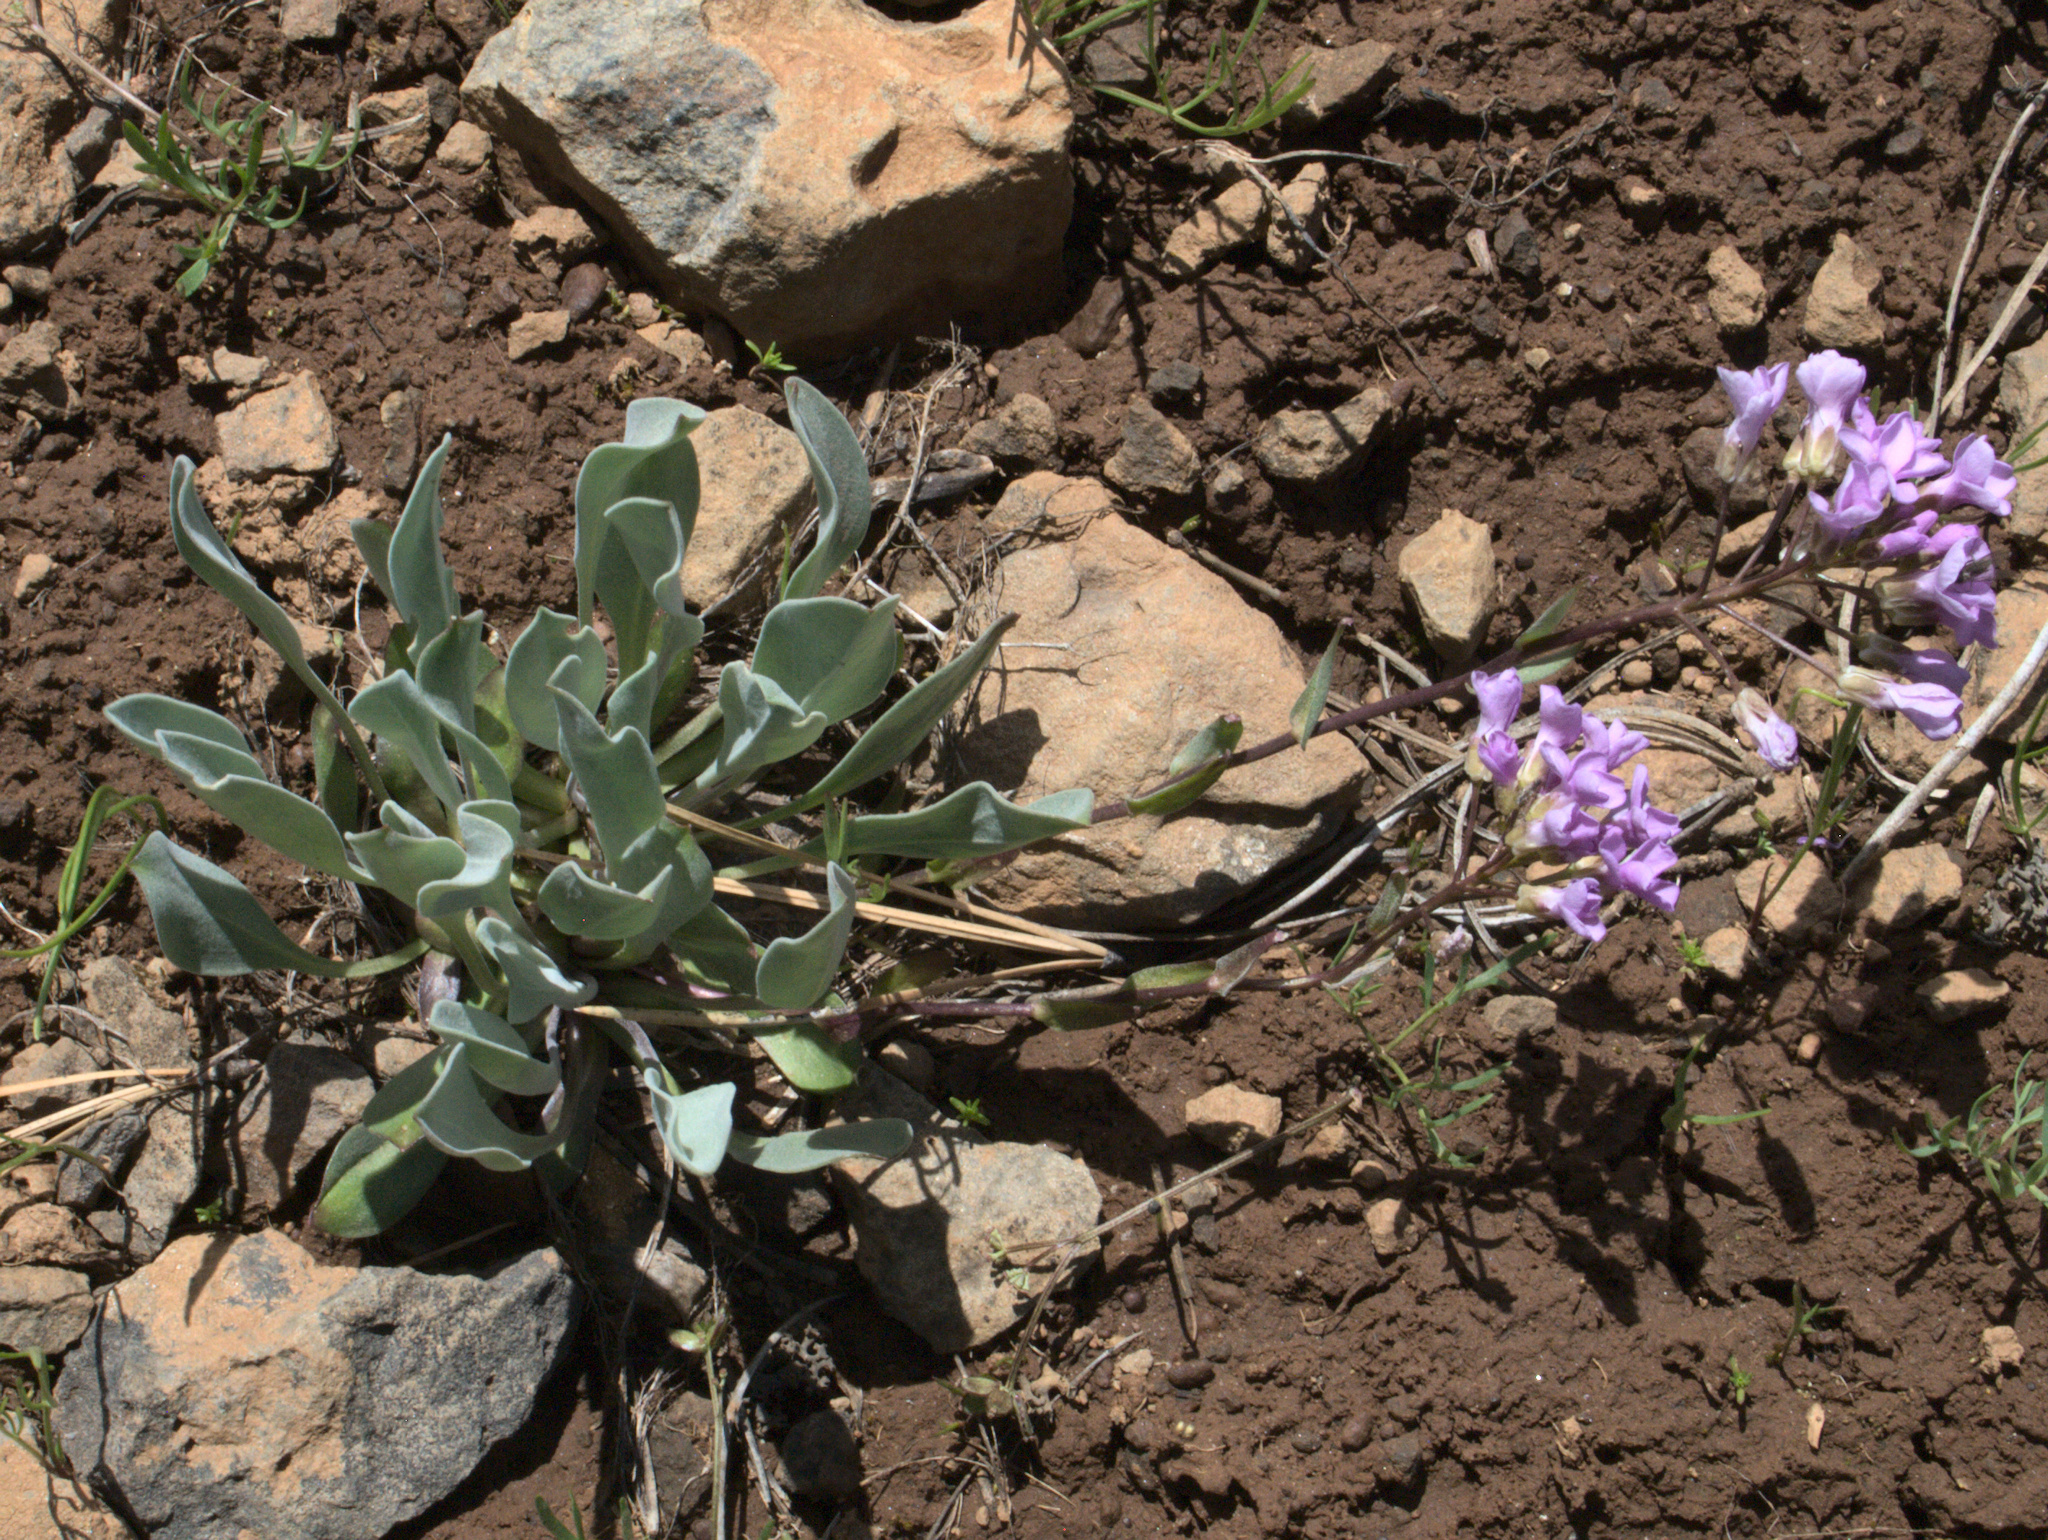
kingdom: Plantae
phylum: Tracheophyta
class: Magnoliopsida
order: Brassicales
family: Brassicaceae
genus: Phoenicaulis
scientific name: Phoenicaulis cheiranthoides
